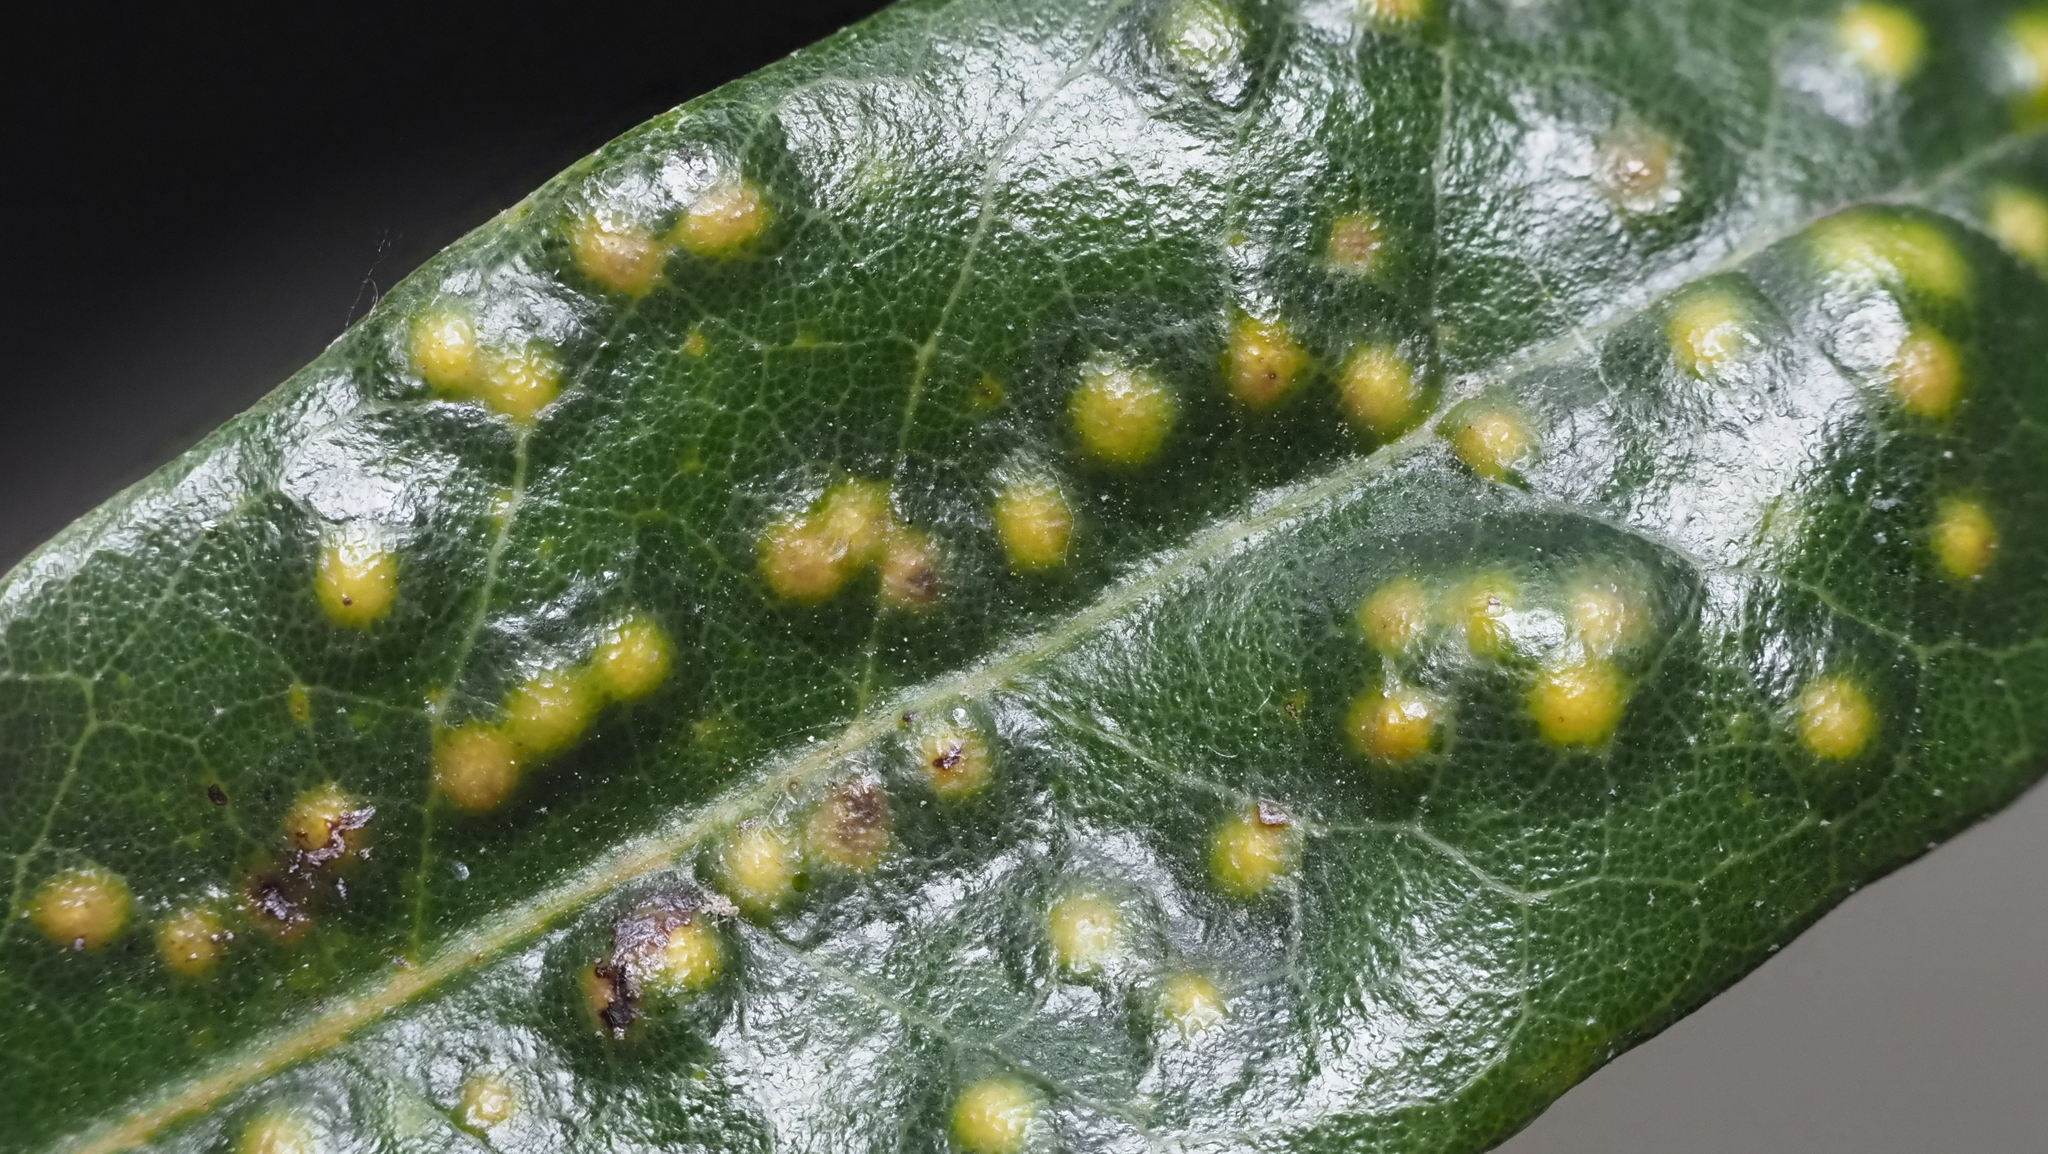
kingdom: Animalia
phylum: Arthropoda
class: Insecta
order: Hymenoptera
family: Cynipidae
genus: Neuroterus
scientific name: Neuroterus
